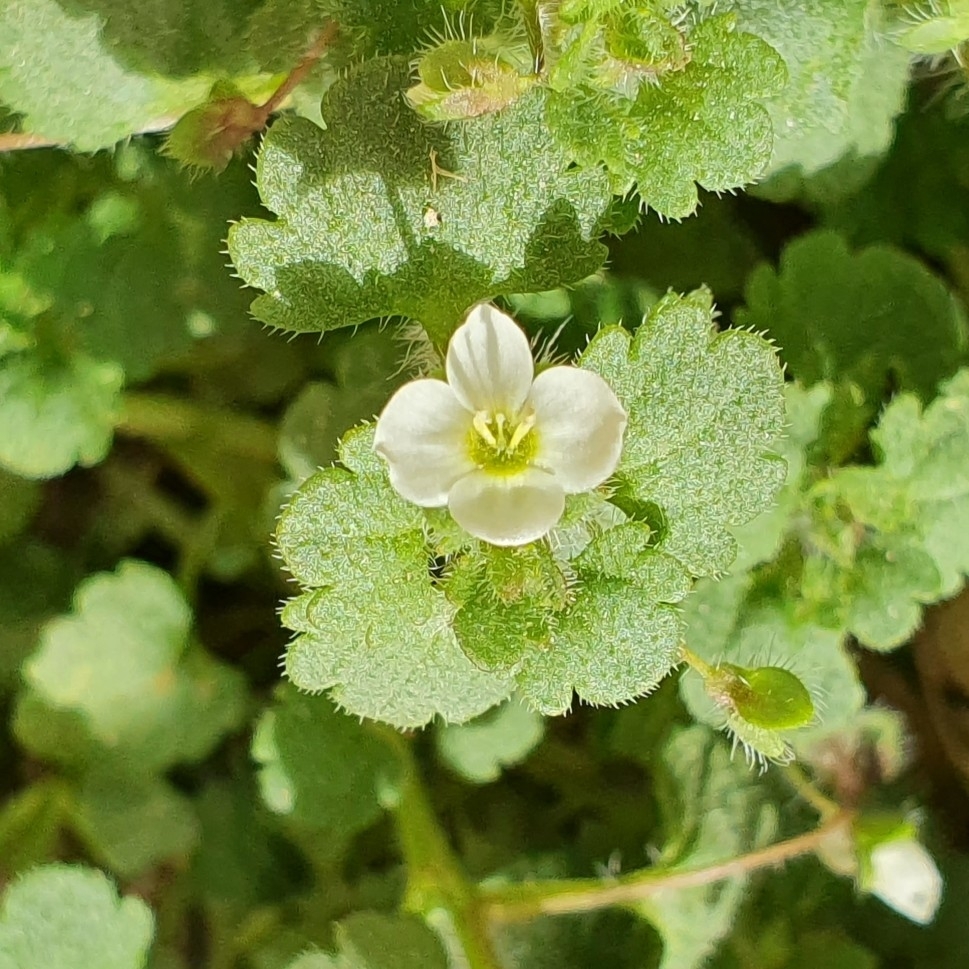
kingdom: Plantae
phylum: Tracheophyta
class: Magnoliopsida
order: Lamiales
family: Plantaginaceae
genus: Veronica
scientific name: Veronica cymbalaria
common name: Pale speedwell
